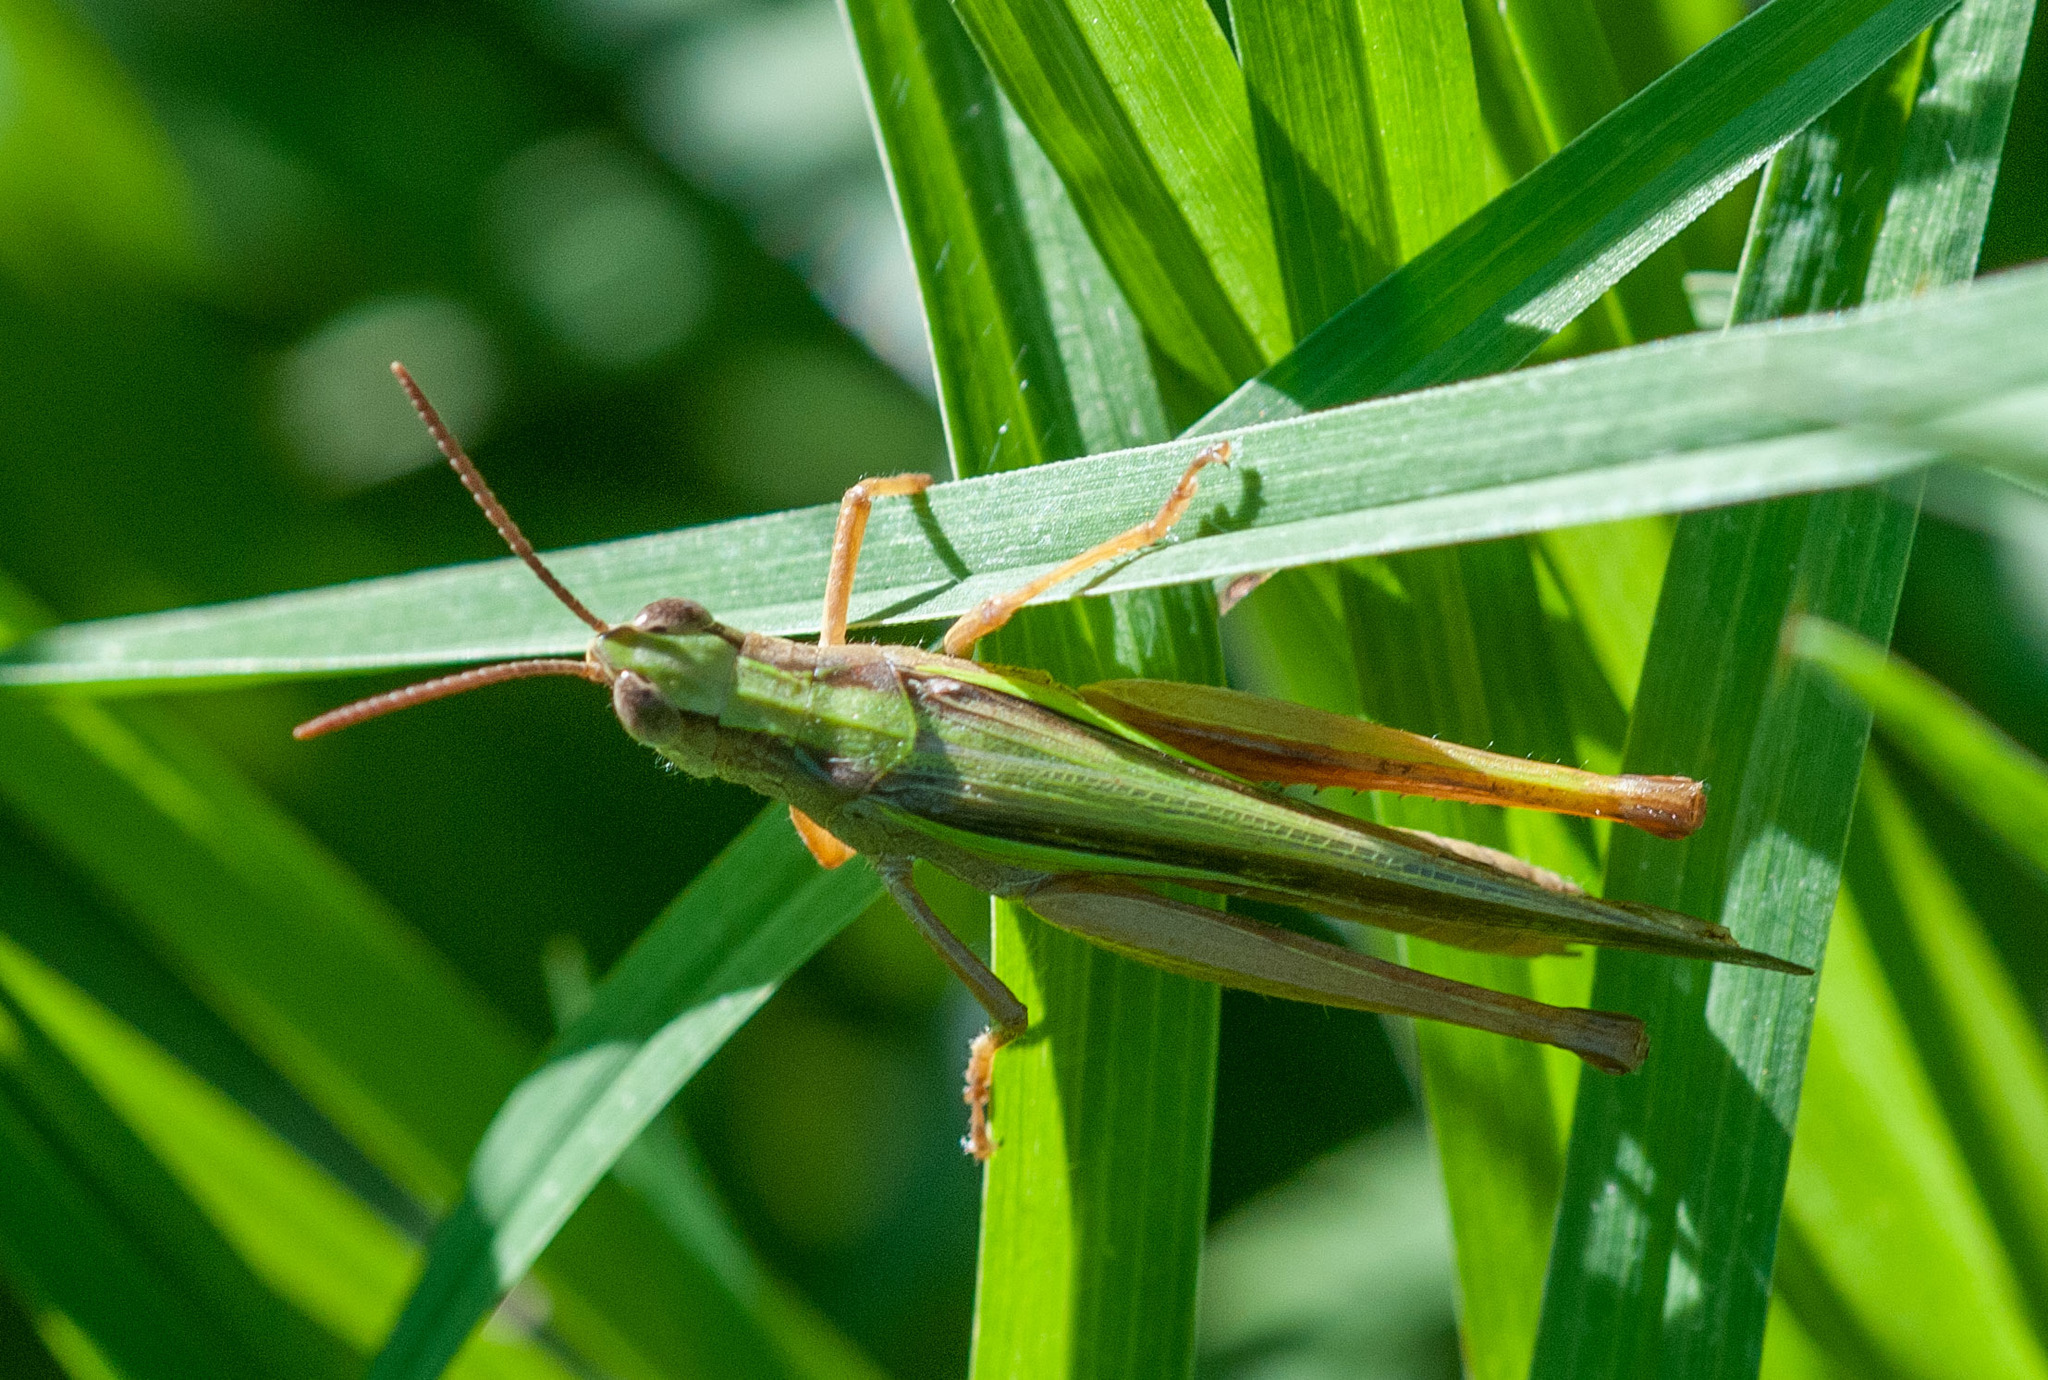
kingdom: Animalia
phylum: Arthropoda
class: Insecta
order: Orthoptera
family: Acrididae
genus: Schizobothrus
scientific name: Schizobothrus flavovittatus
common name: Disappearing grasshopper
